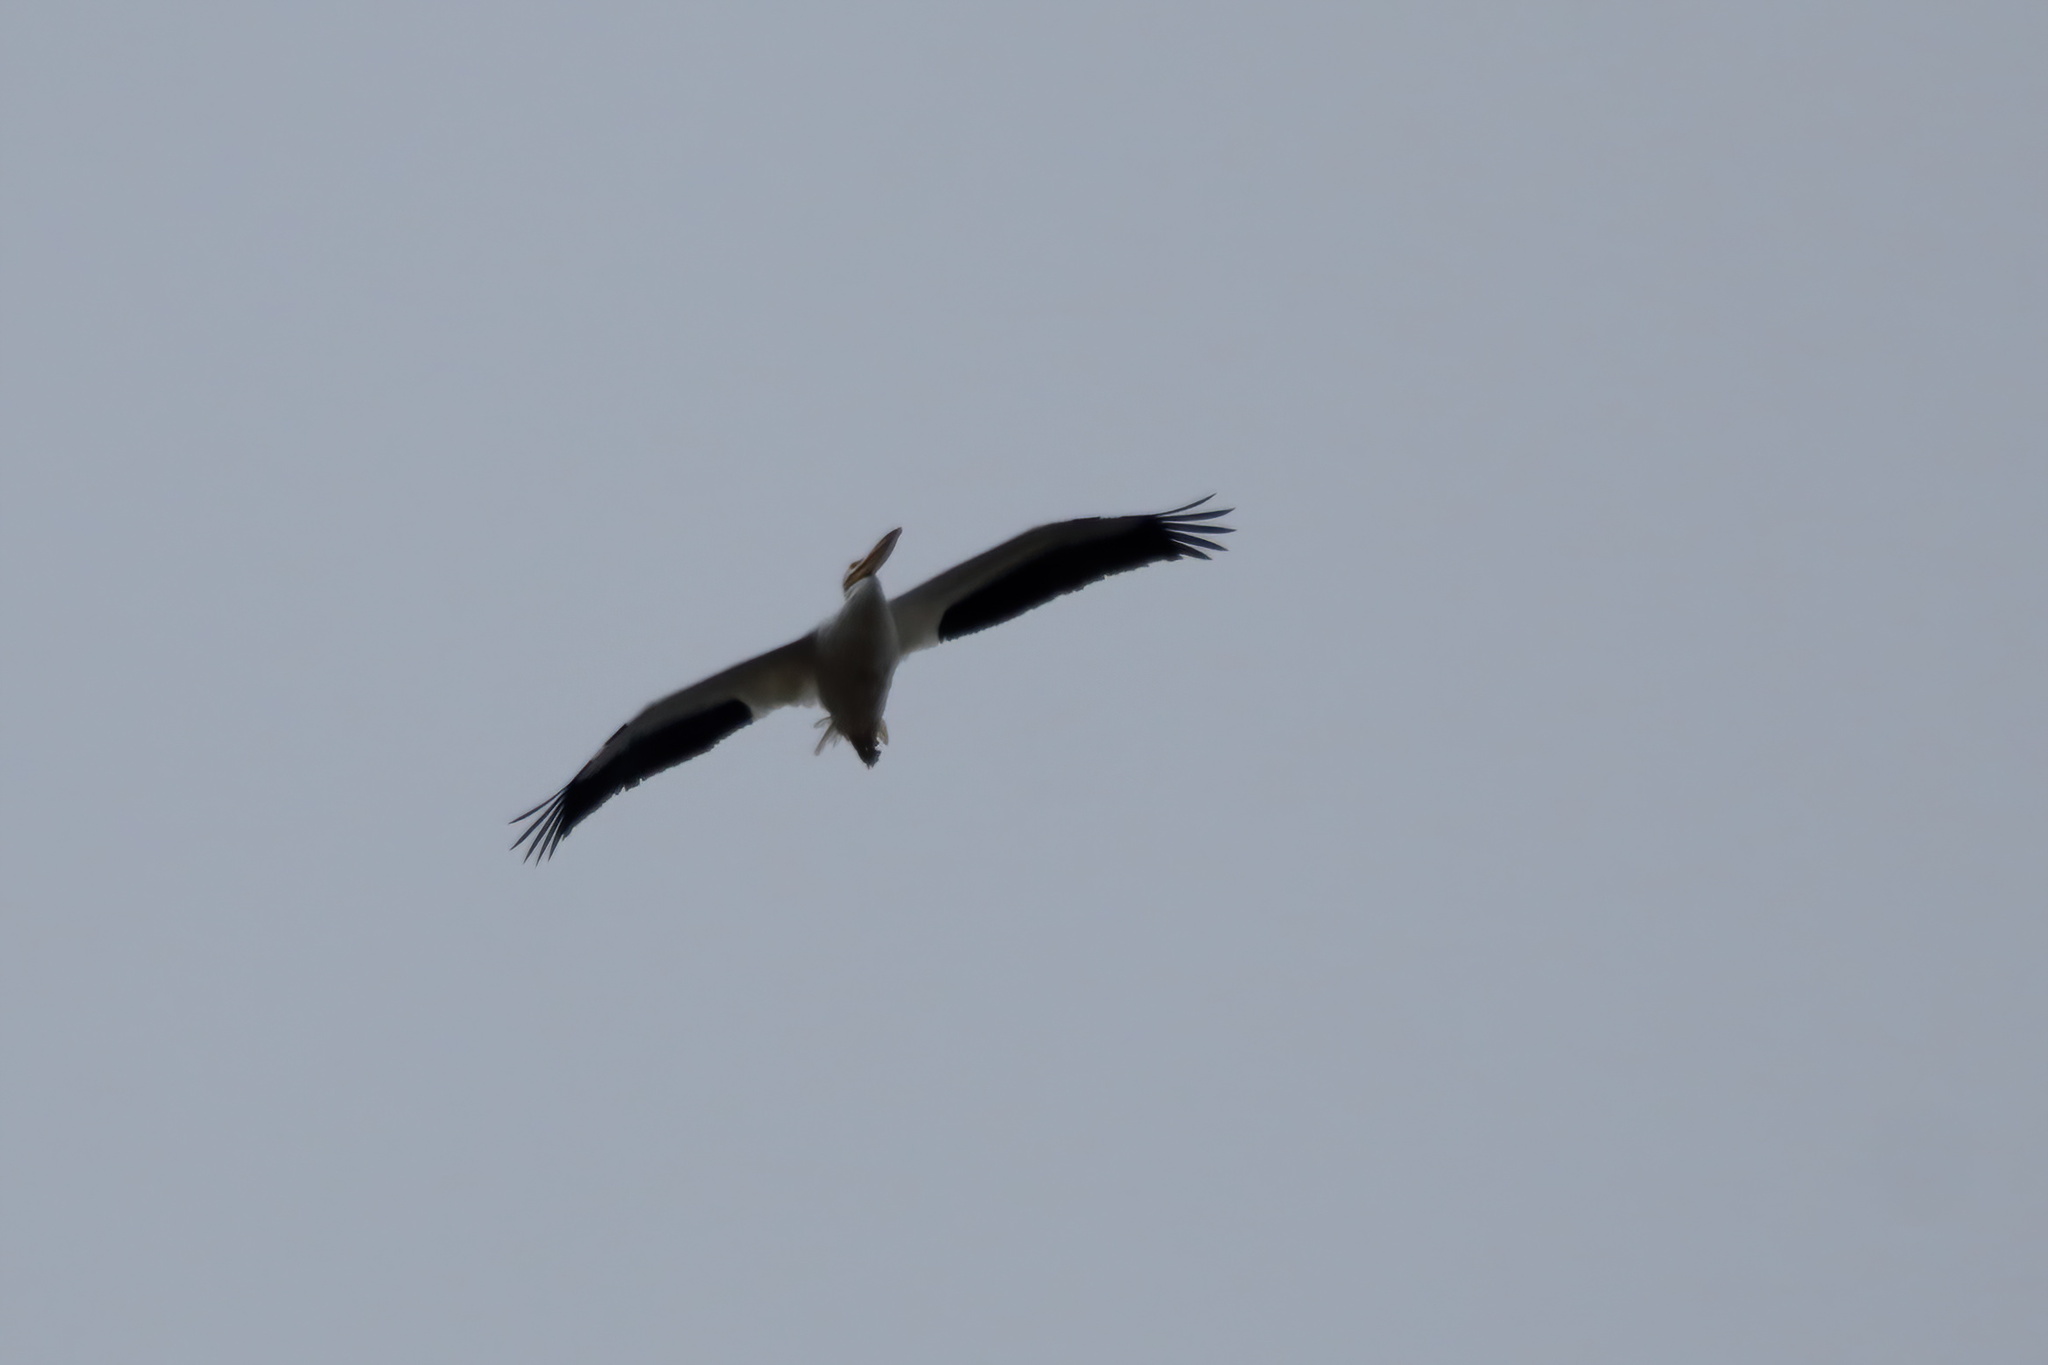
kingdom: Animalia
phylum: Chordata
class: Aves
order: Pelecaniformes
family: Pelecanidae
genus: Pelecanus
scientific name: Pelecanus erythrorhynchos
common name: American white pelican
